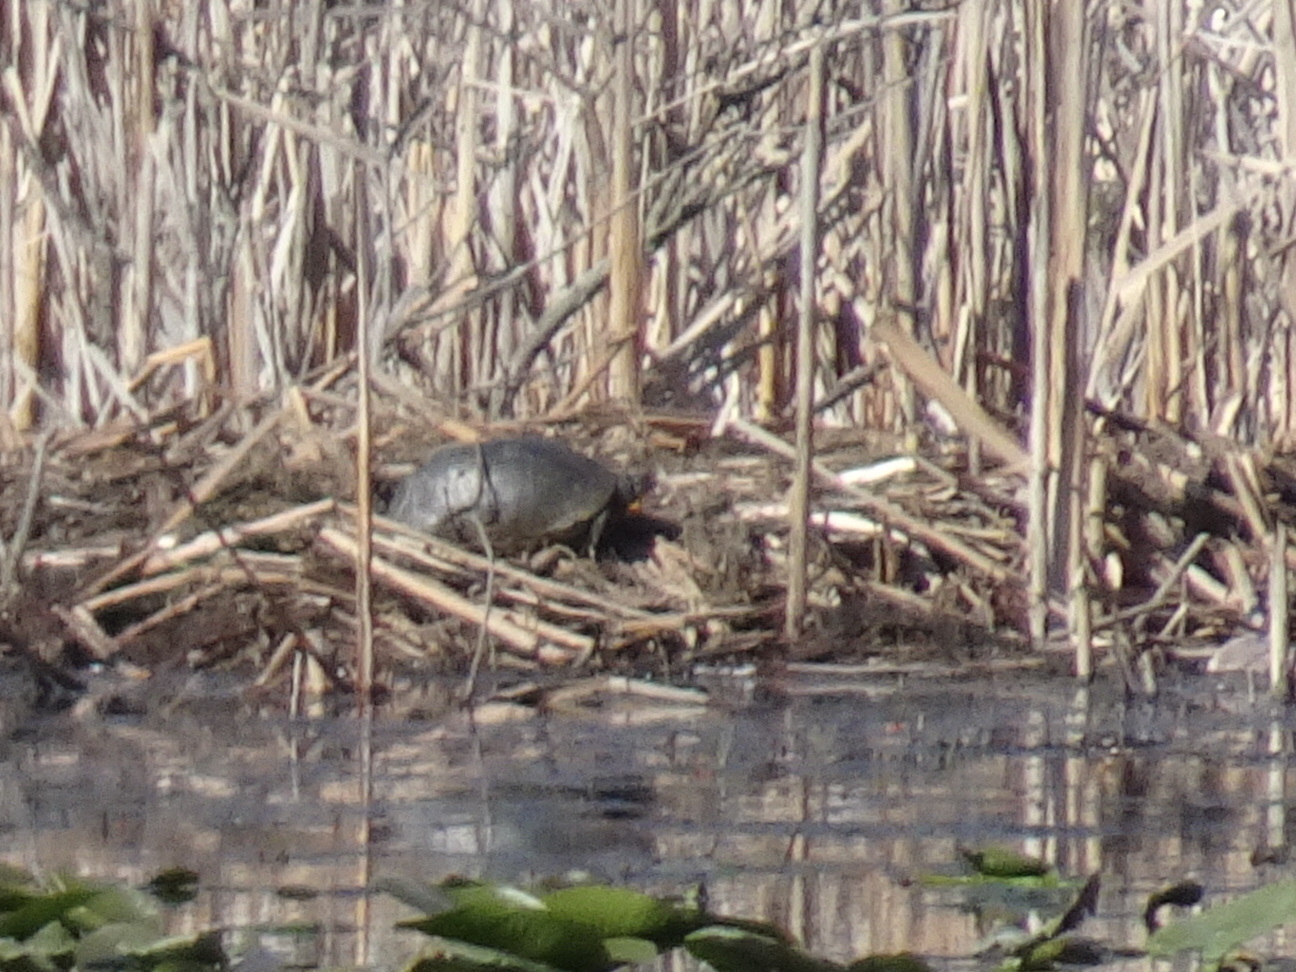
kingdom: Animalia
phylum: Chordata
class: Testudines
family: Emydidae
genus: Emys
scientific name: Emys blandingii
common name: Blanding's turtle
